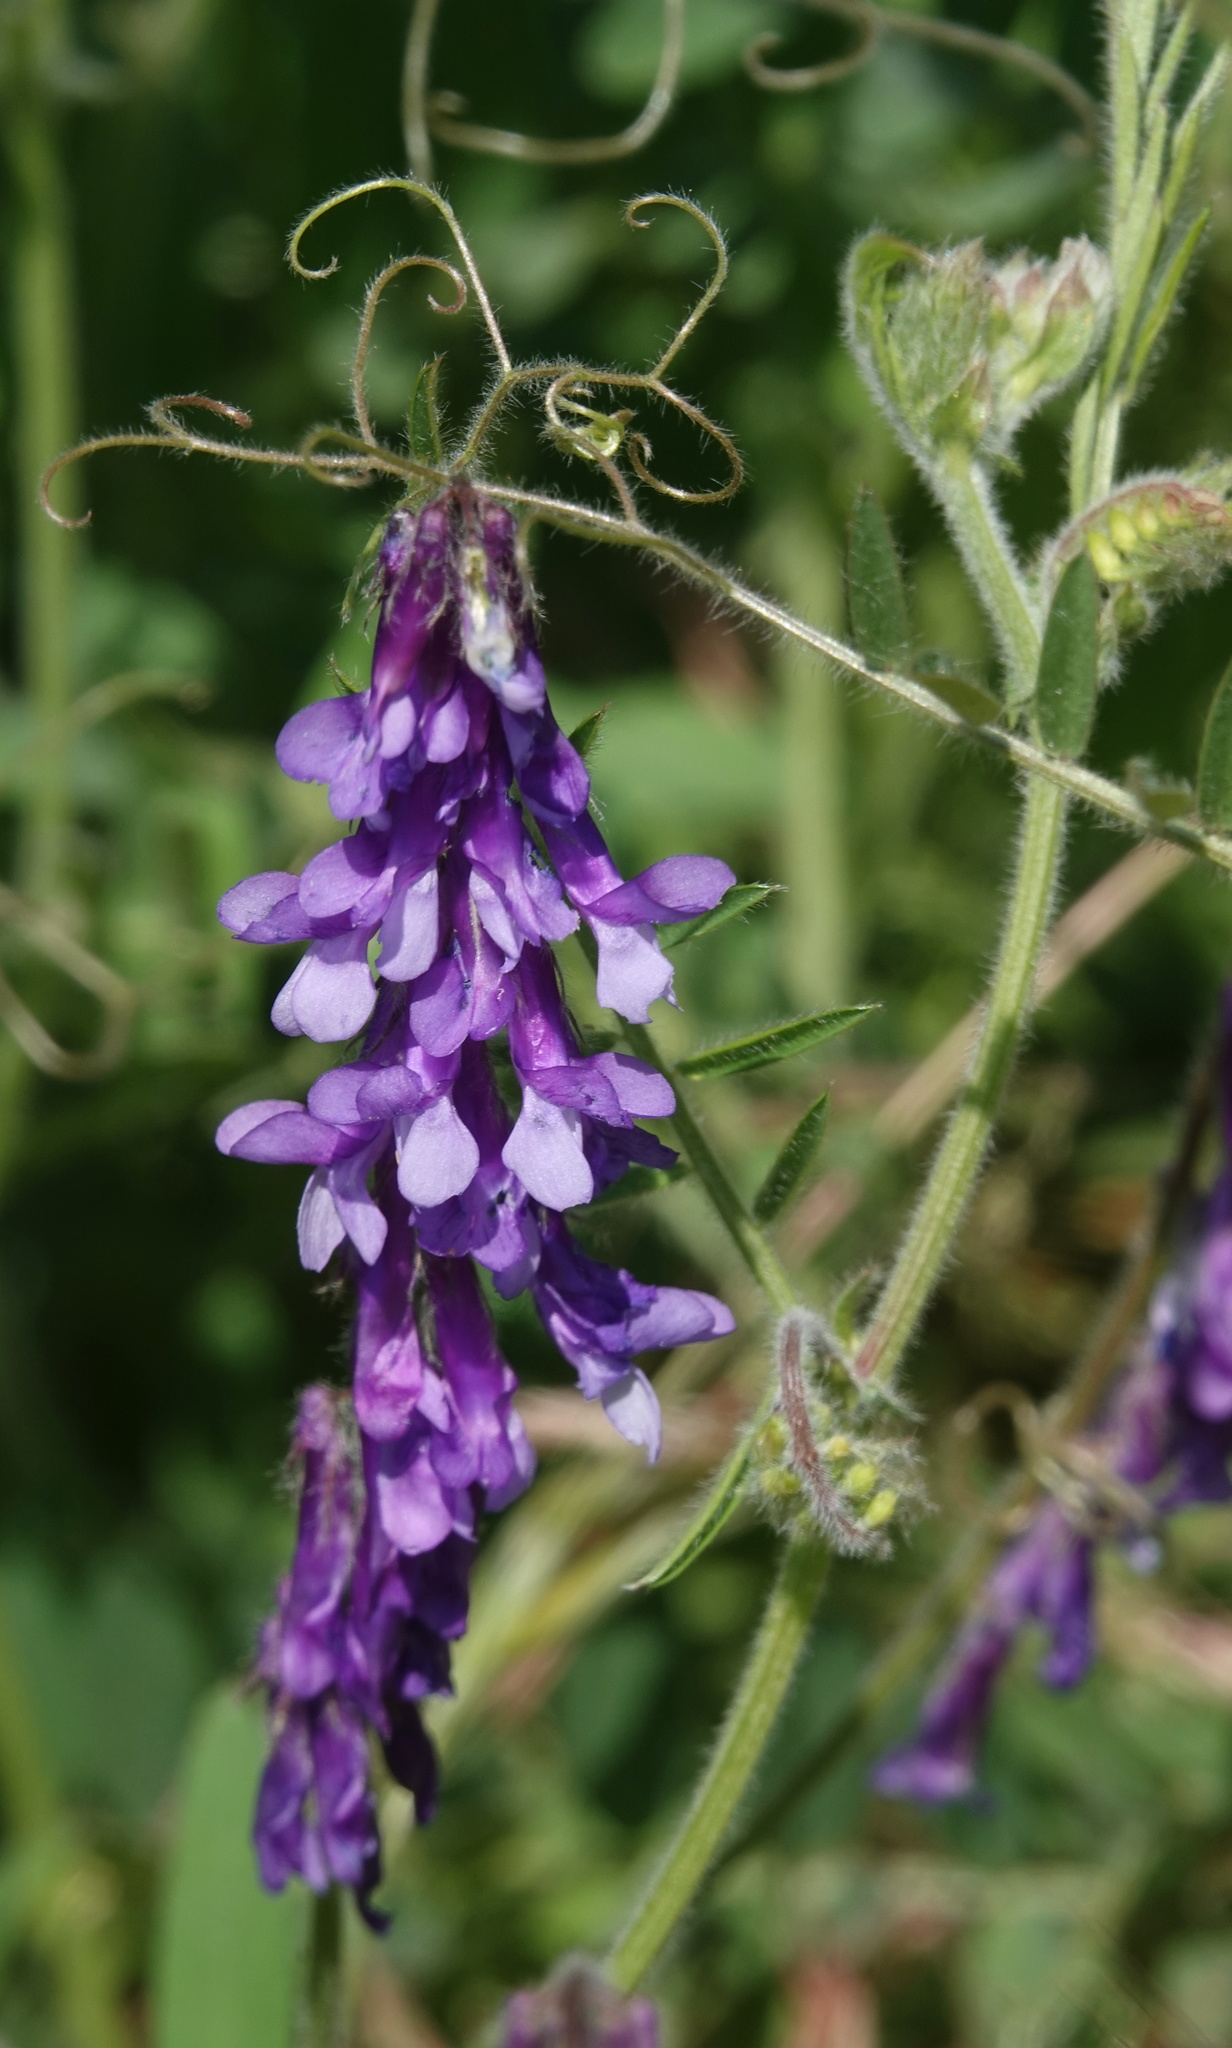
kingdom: Plantae
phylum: Tracheophyta
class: Magnoliopsida
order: Fabales
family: Fabaceae
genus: Vicia
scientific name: Vicia villosa
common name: Fodder vetch
